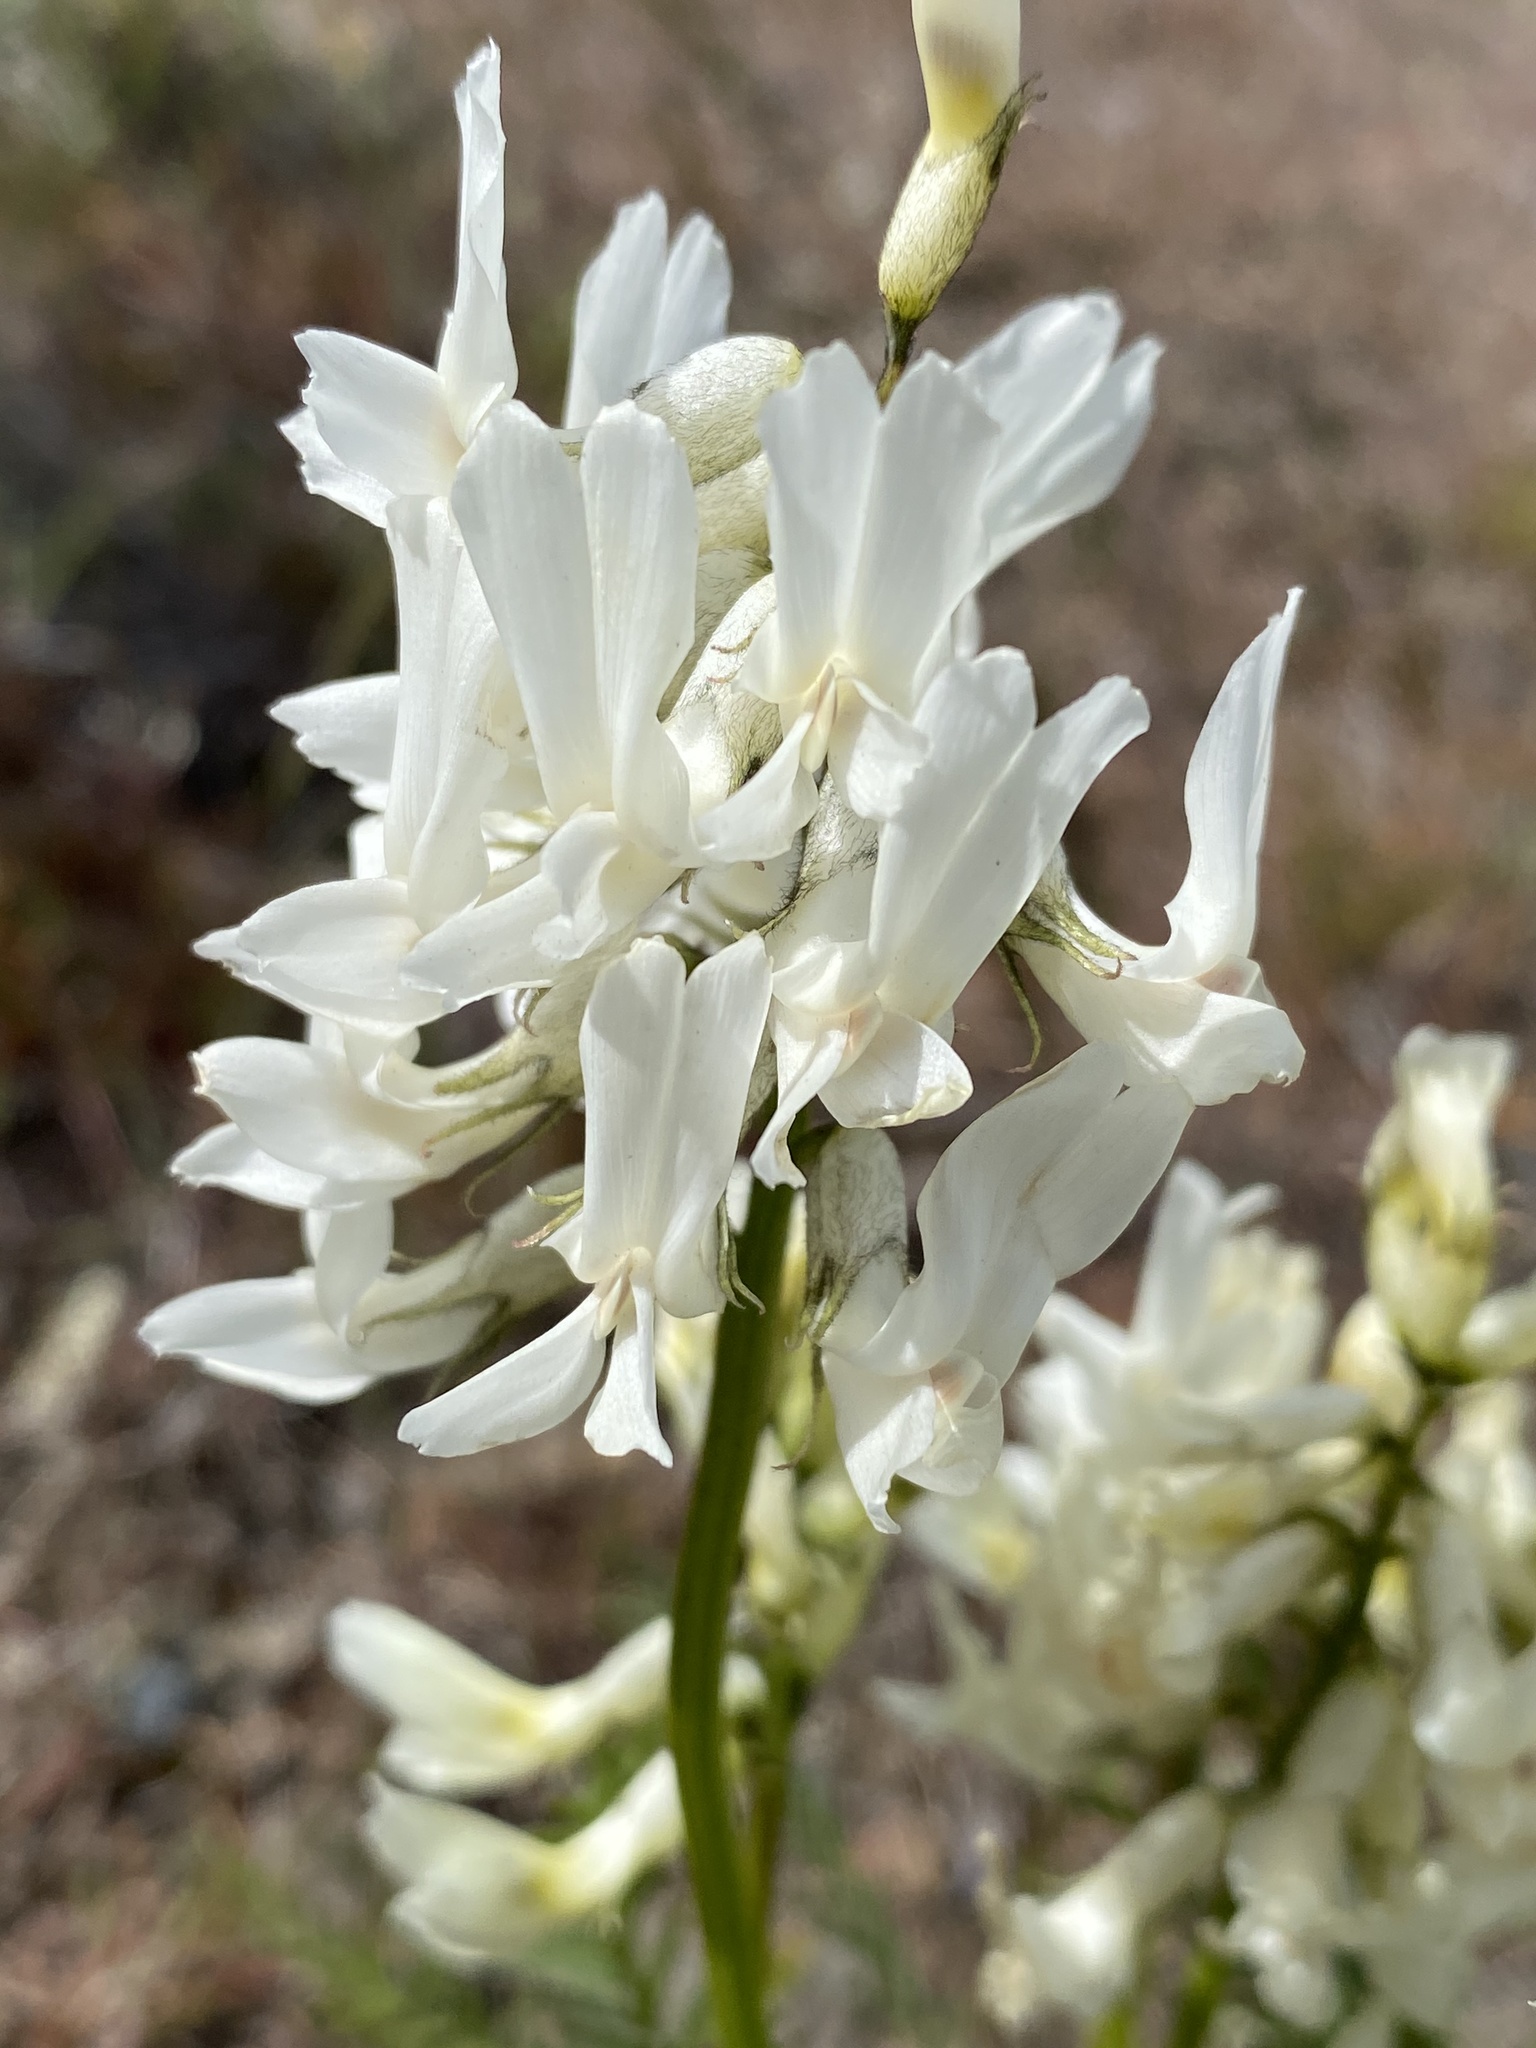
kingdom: Plantae
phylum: Tracheophyta
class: Magnoliopsida
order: Fabales
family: Fabaceae
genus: Astragalus
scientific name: Astragalus reventiformis
